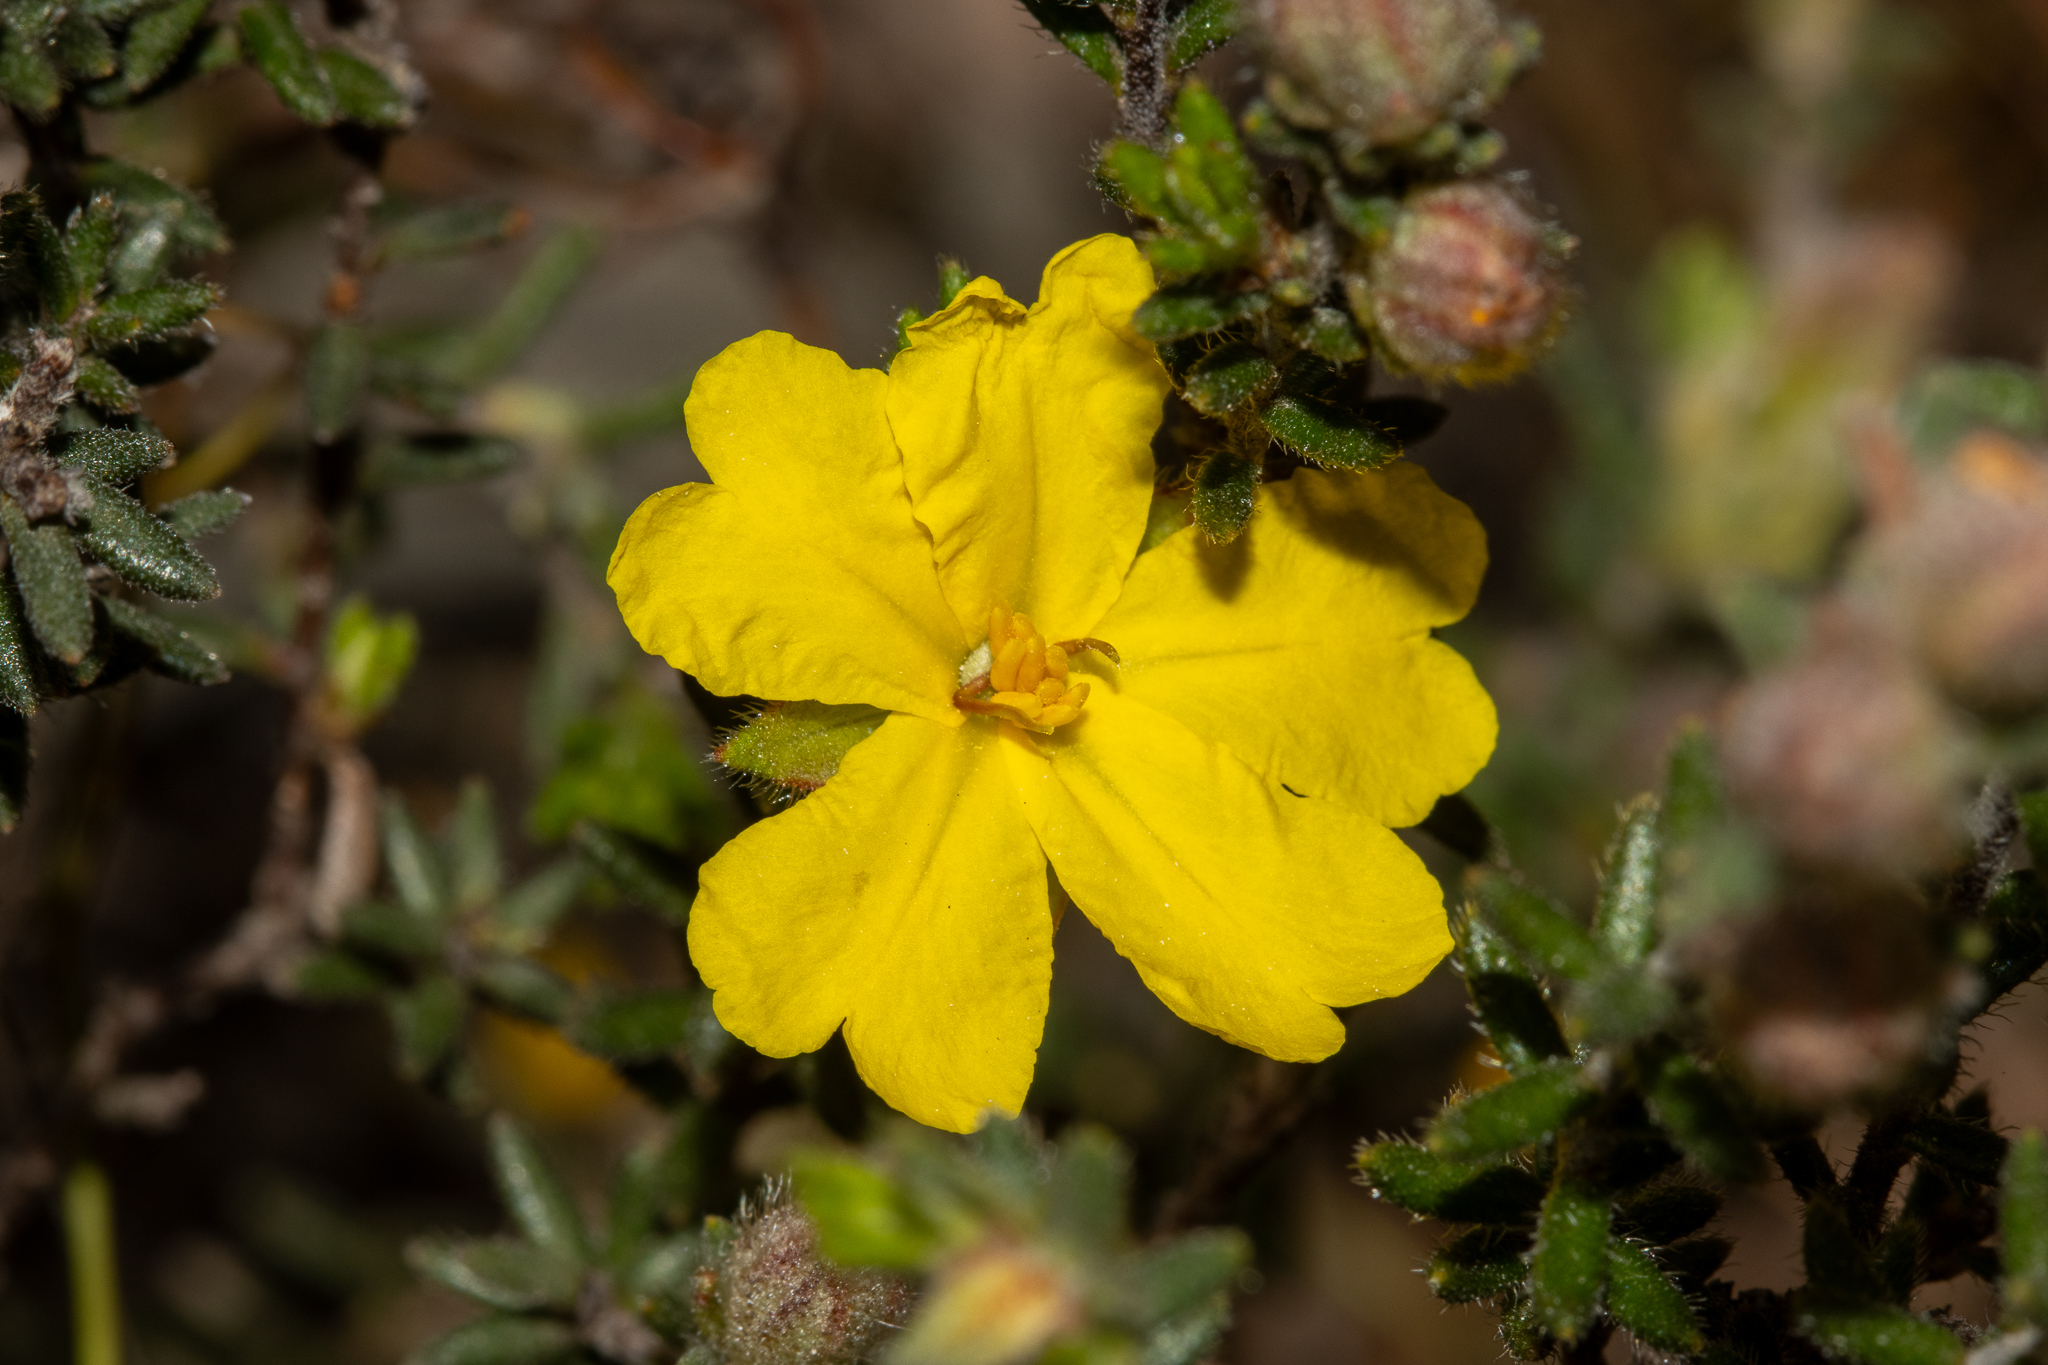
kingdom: Plantae
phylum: Tracheophyta
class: Magnoliopsida
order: Dilleniales
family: Dilleniaceae
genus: Hibbertia
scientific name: Hibbertia sericea
